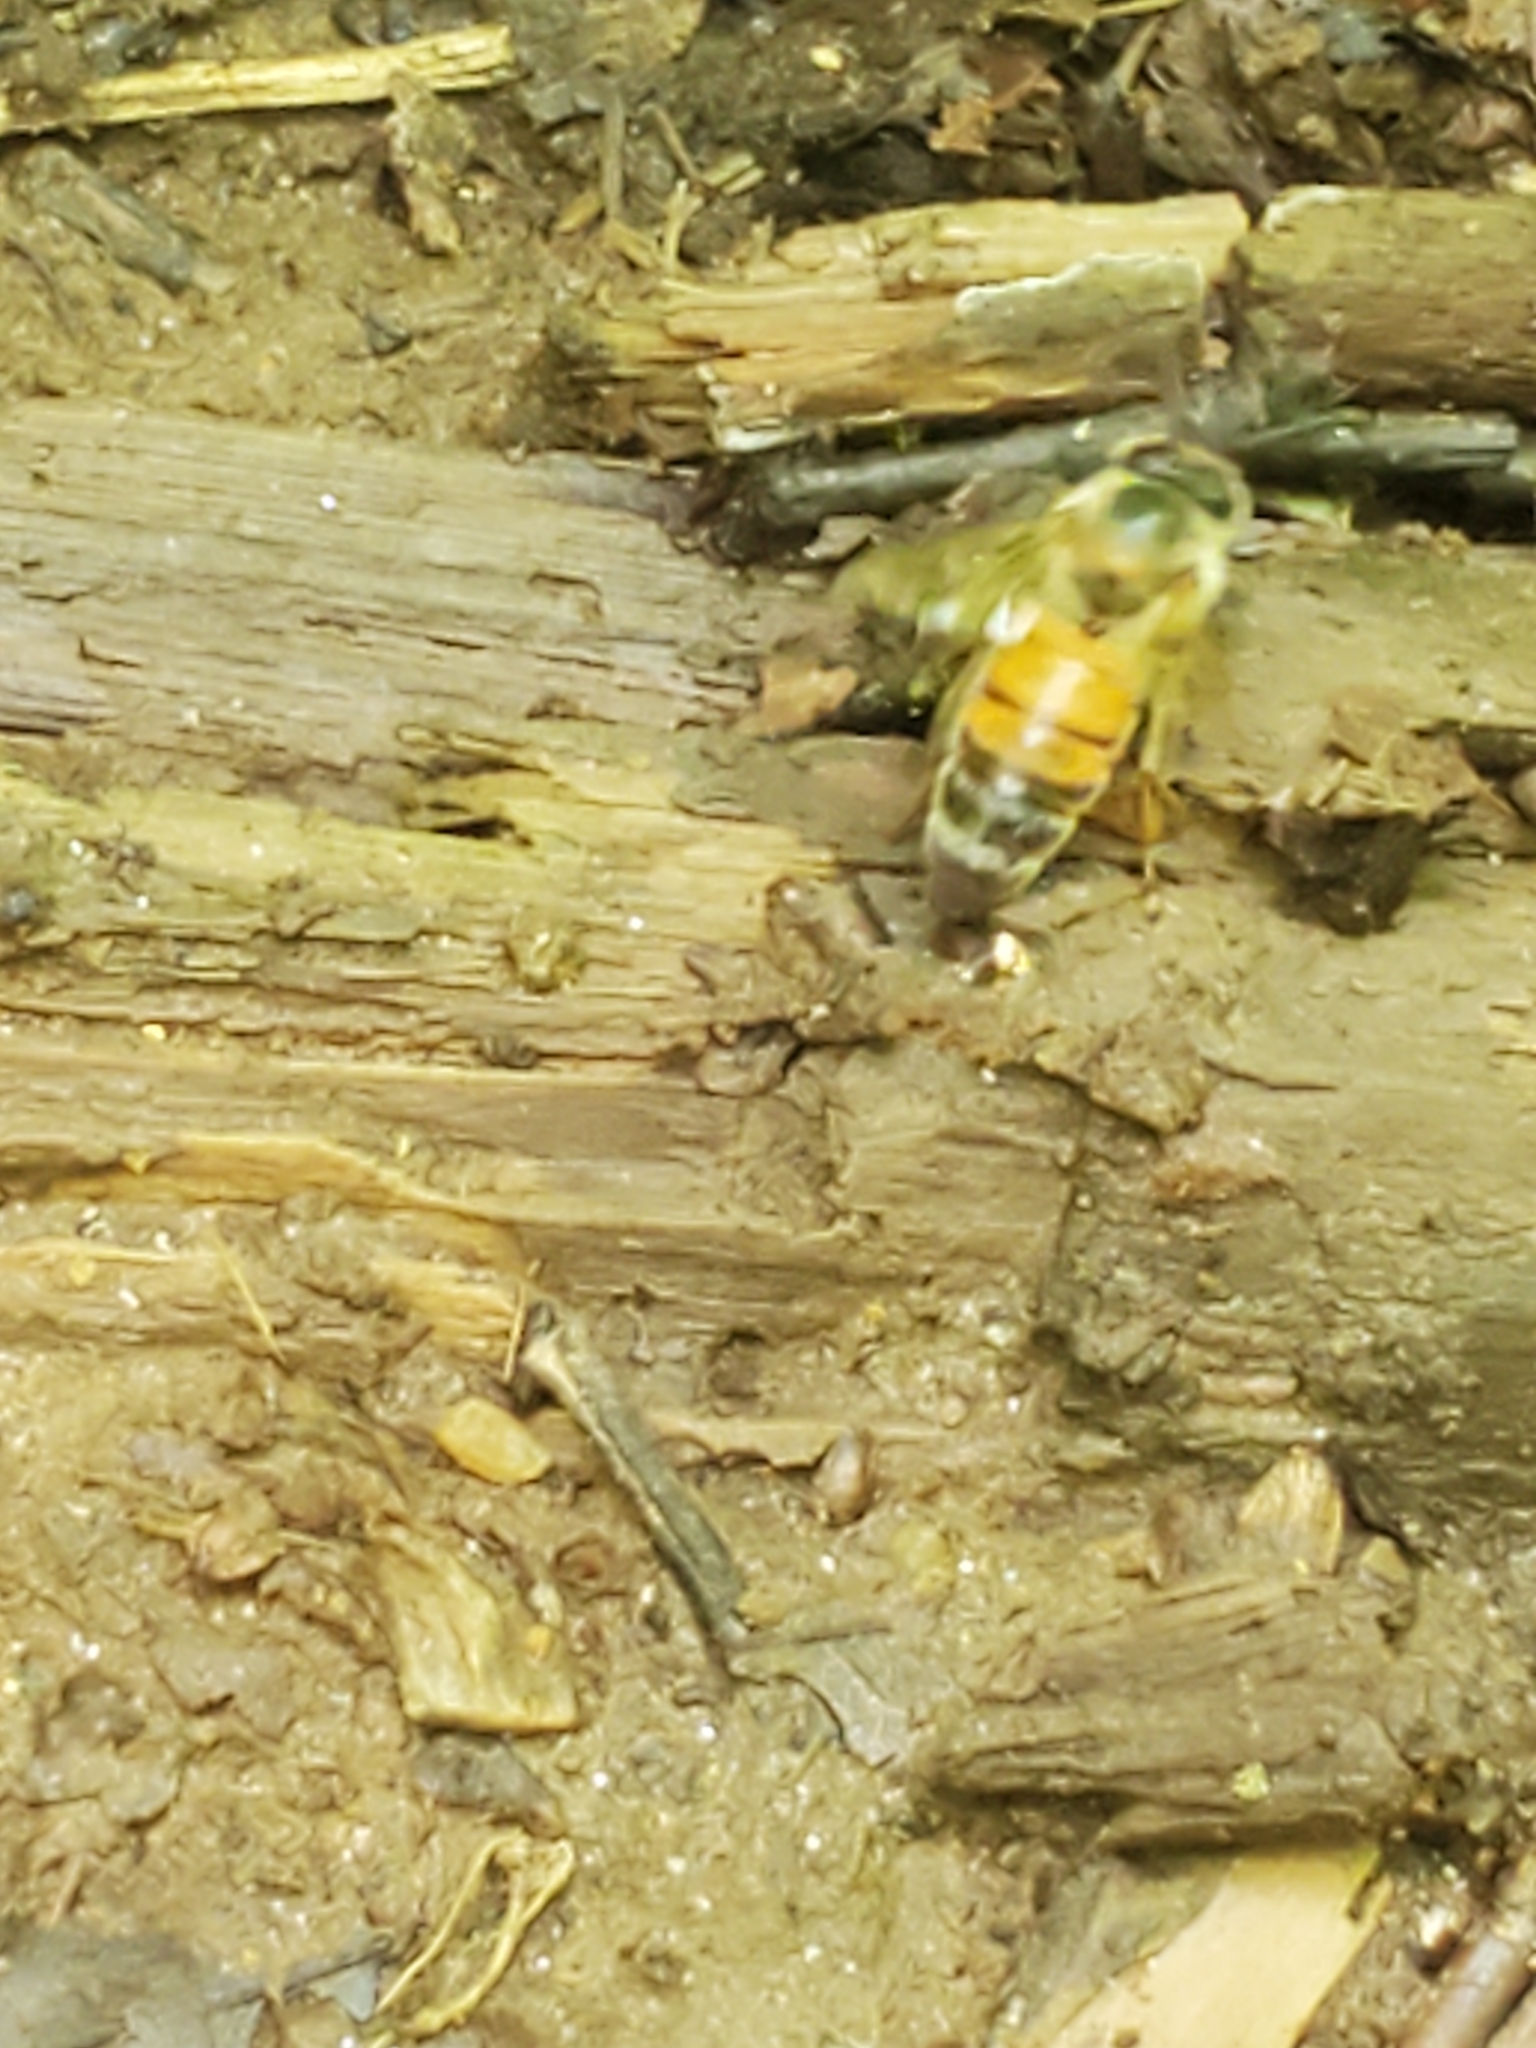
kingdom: Animalia
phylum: Arthropoda
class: Insecta
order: Hymenoptera
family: Apidae
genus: Apis
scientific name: Apis mellifera
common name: Honey bee
